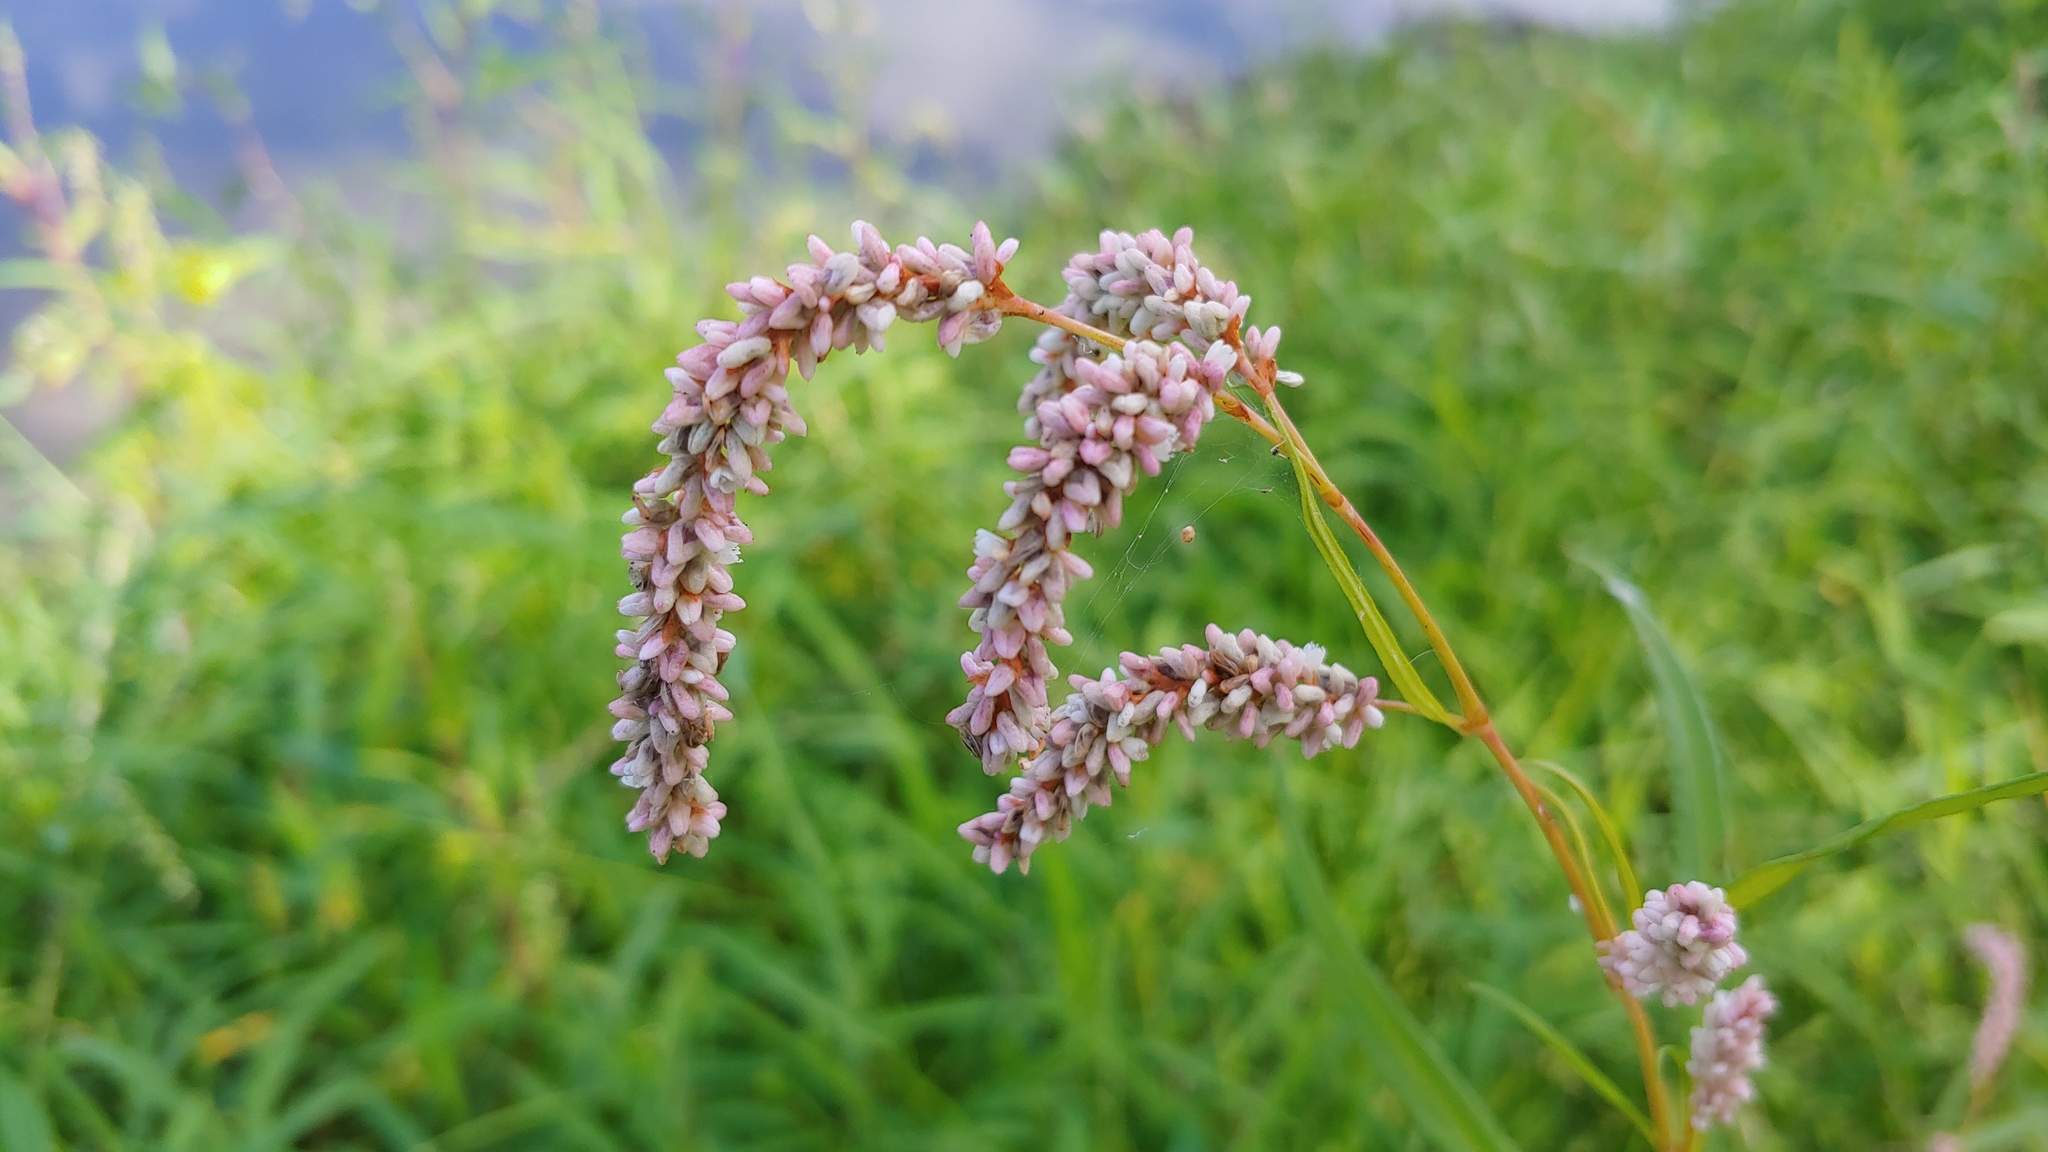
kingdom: Plantae
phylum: Tracheophyta
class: Magnoliopsida
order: Caryophyllales
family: Polygonaceae
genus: Persicaria
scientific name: Persicaria lapathifolia
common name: Curlytop knotweed
